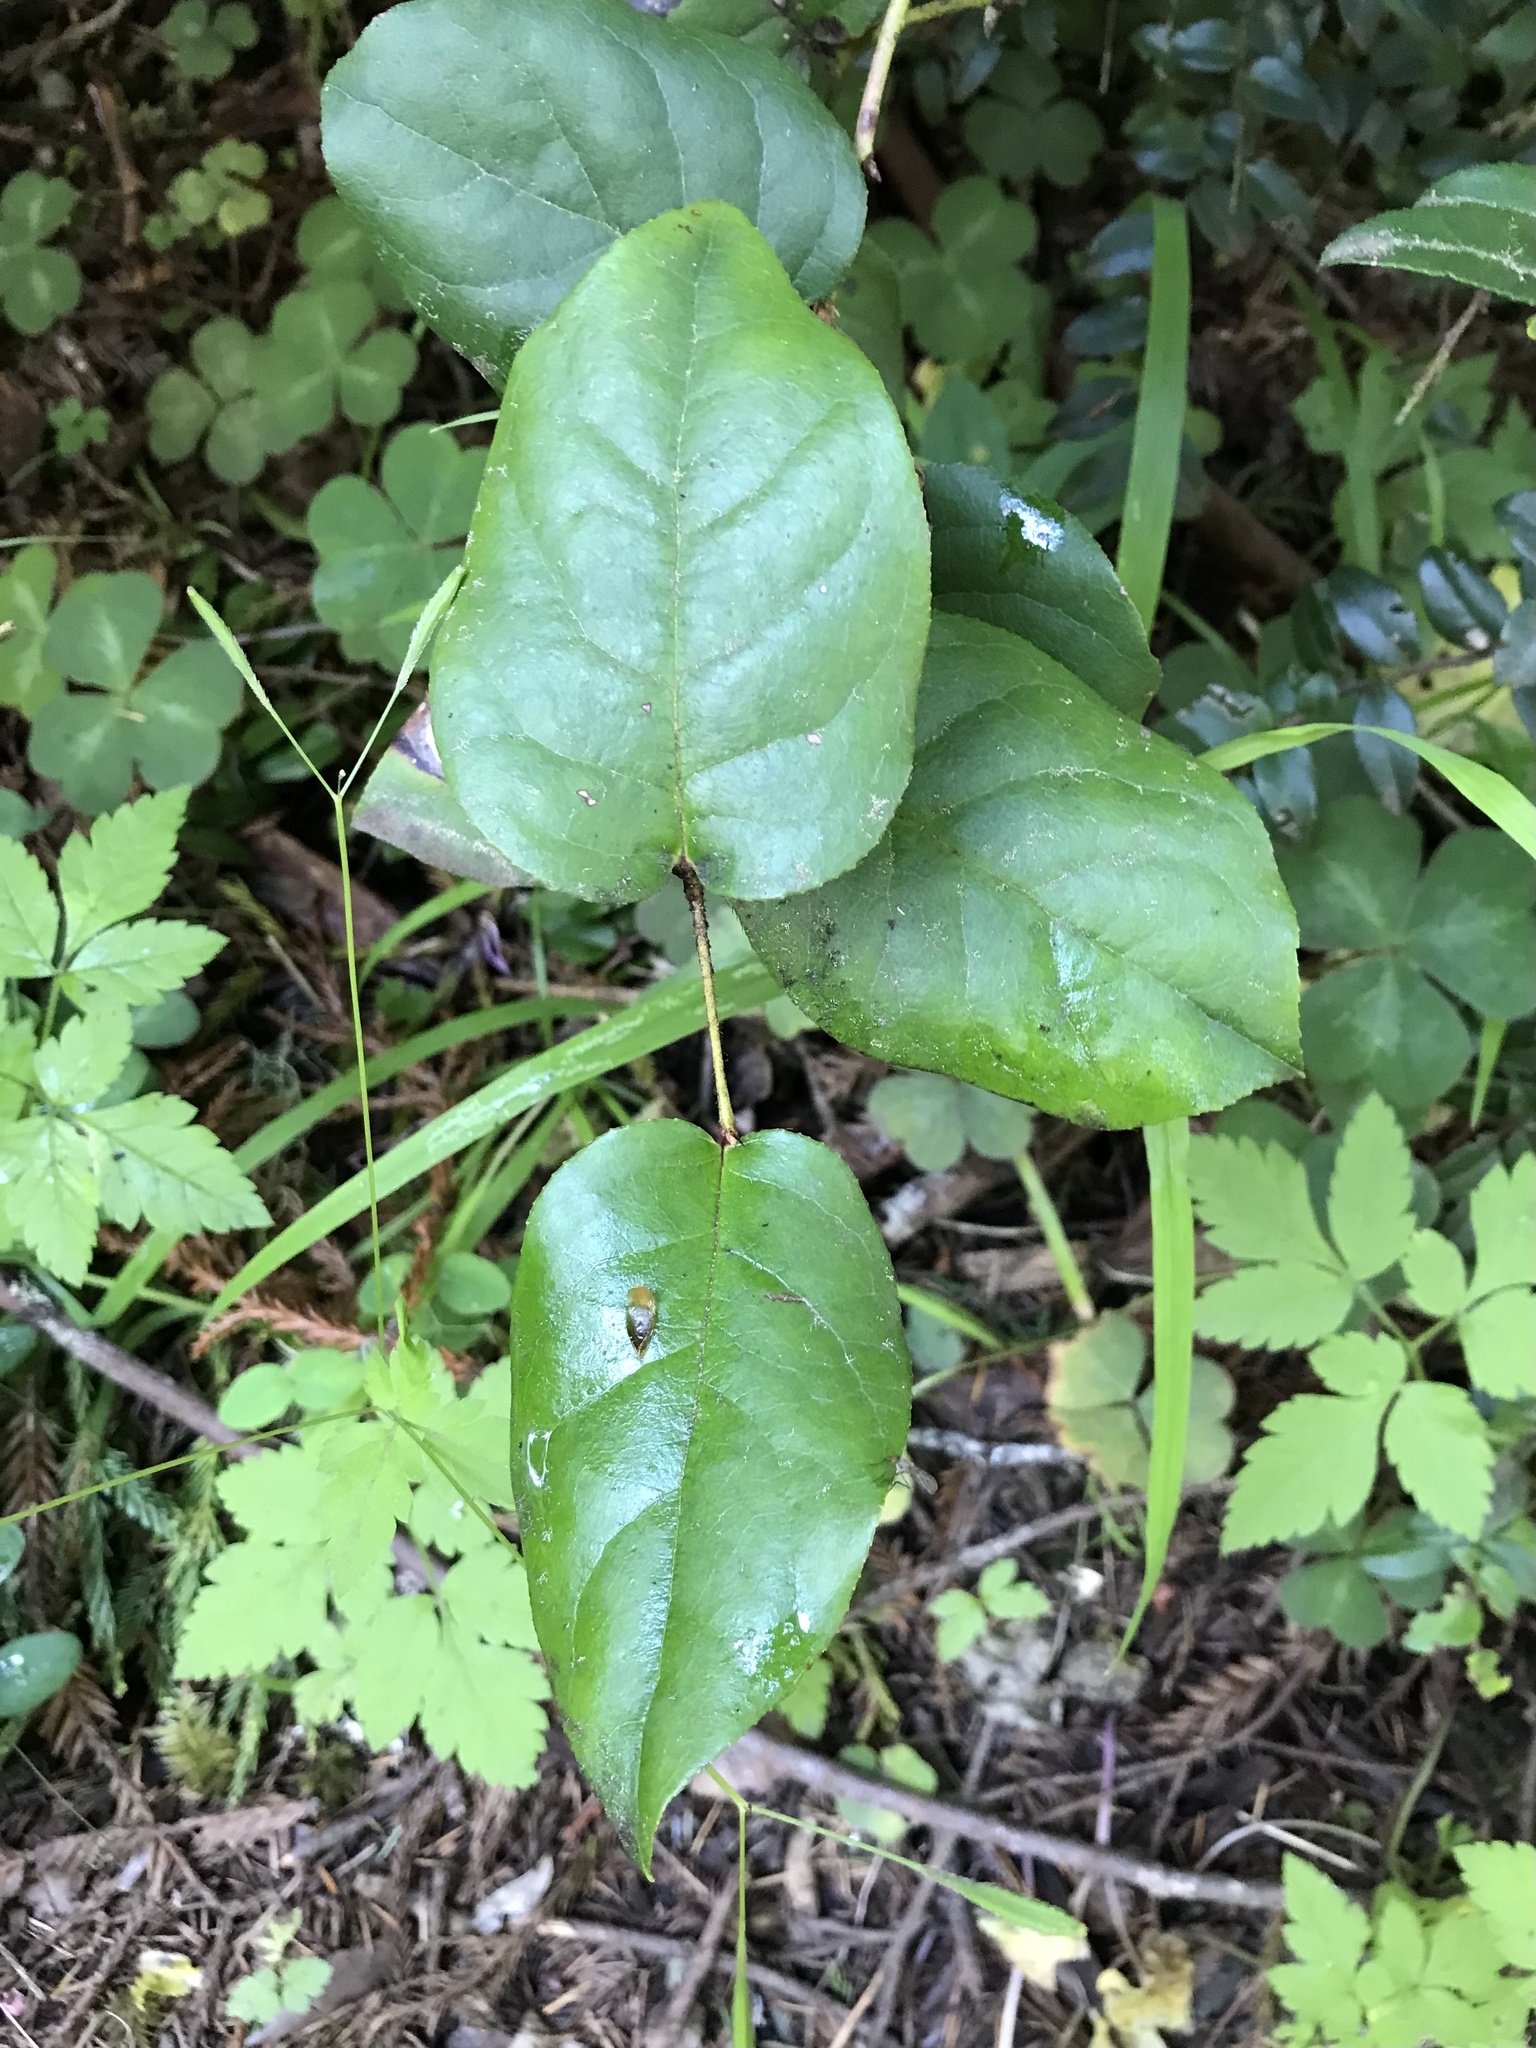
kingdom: Plantae
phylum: Tracheophyta
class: Magnoliopsida
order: Ericales
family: Ericaceae
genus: Gaultheria
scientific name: Gaultheria shallon
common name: Shallon
